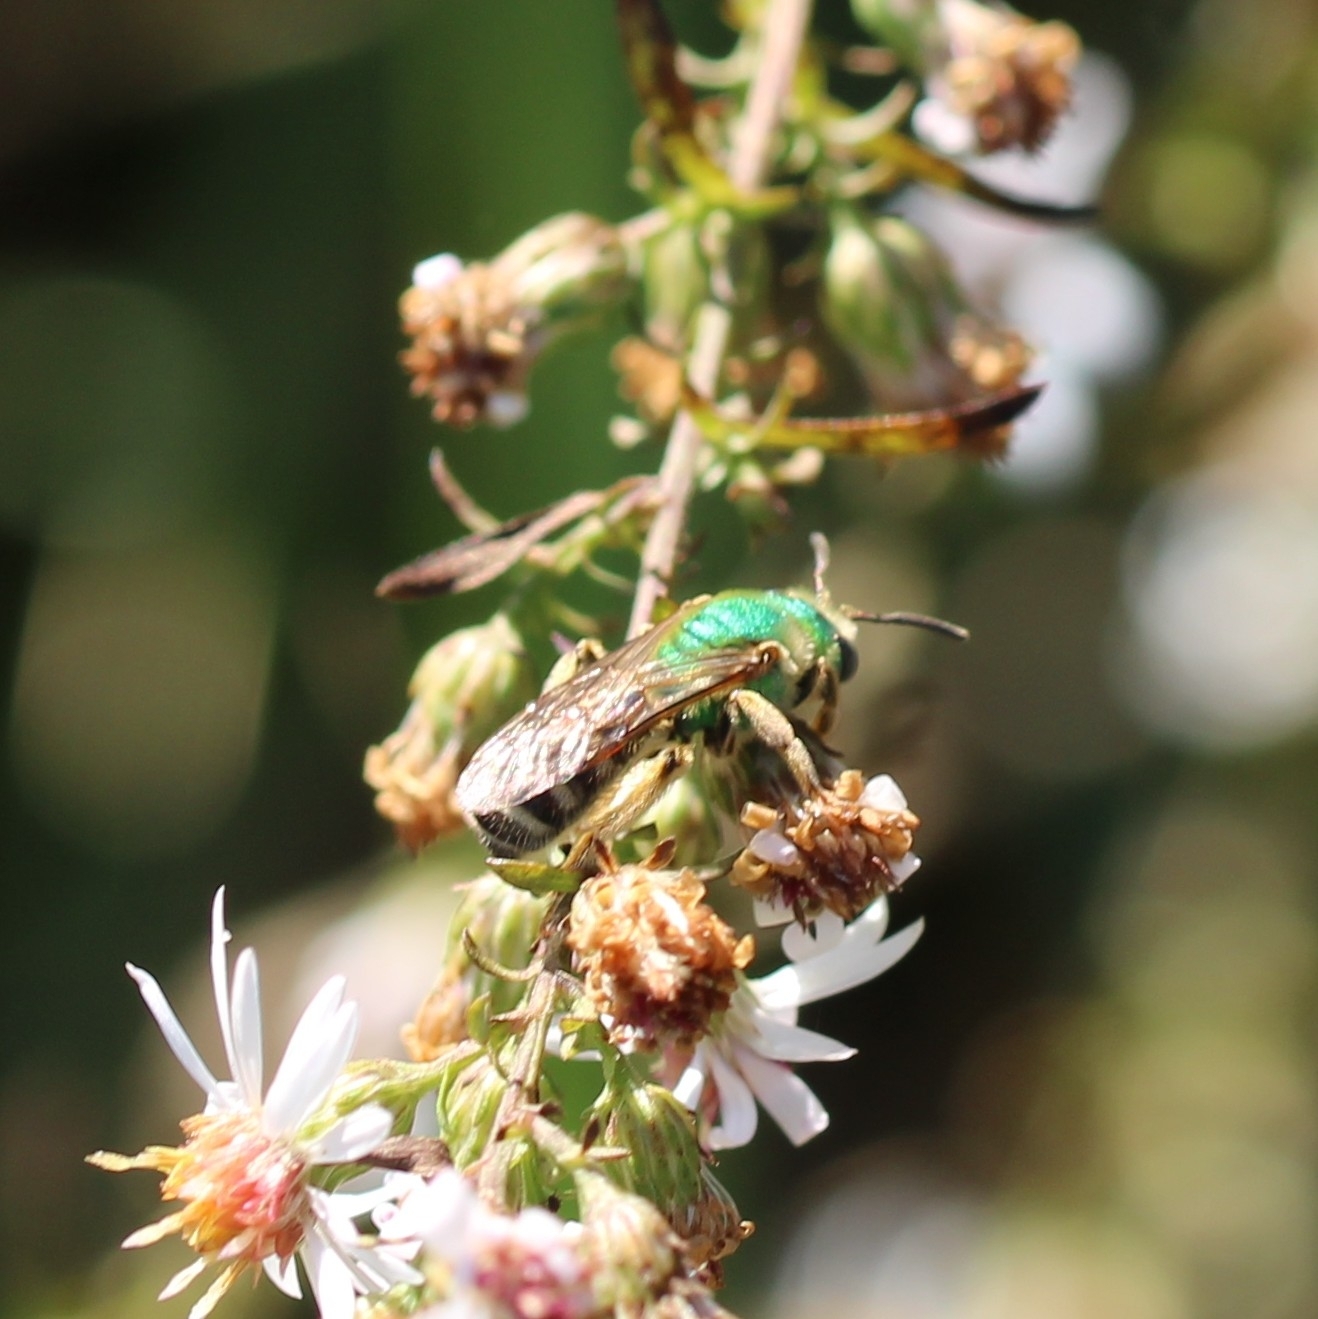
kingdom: Animalia
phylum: Arthropoda
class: Insecta
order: Hymenoptera
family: Halictidae
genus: Agapostemon
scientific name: Agapostemon virescens
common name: Bicolored striped sweat bee
